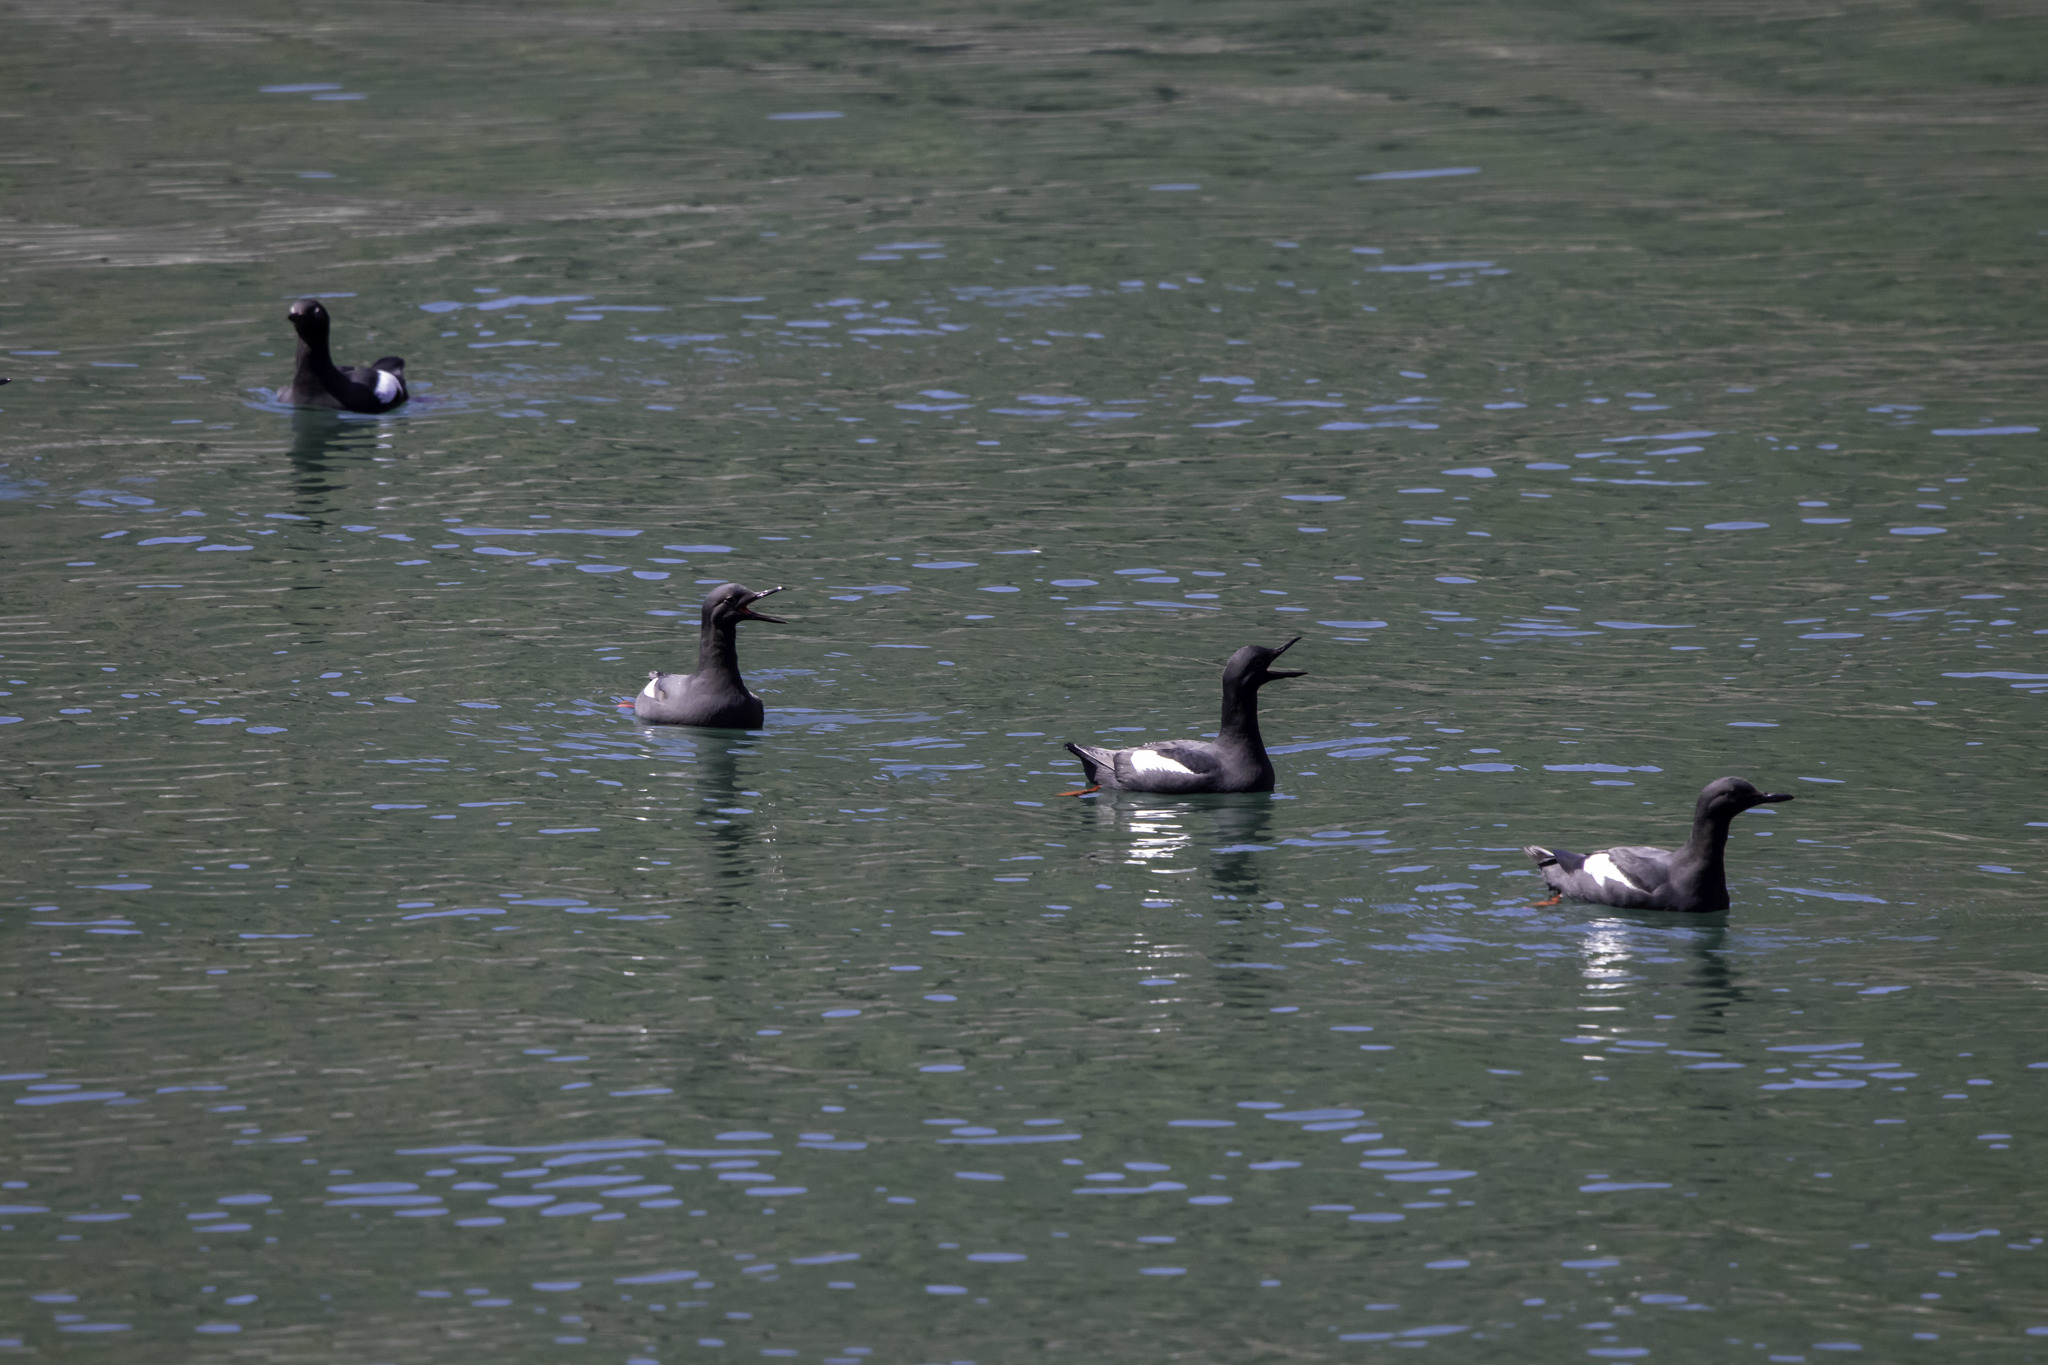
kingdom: Animalia
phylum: Chordata
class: Aves
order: Charadriiformes
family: Alcidae
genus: Cepphus
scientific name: Cepphus columba
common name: Pigeon guillemot
